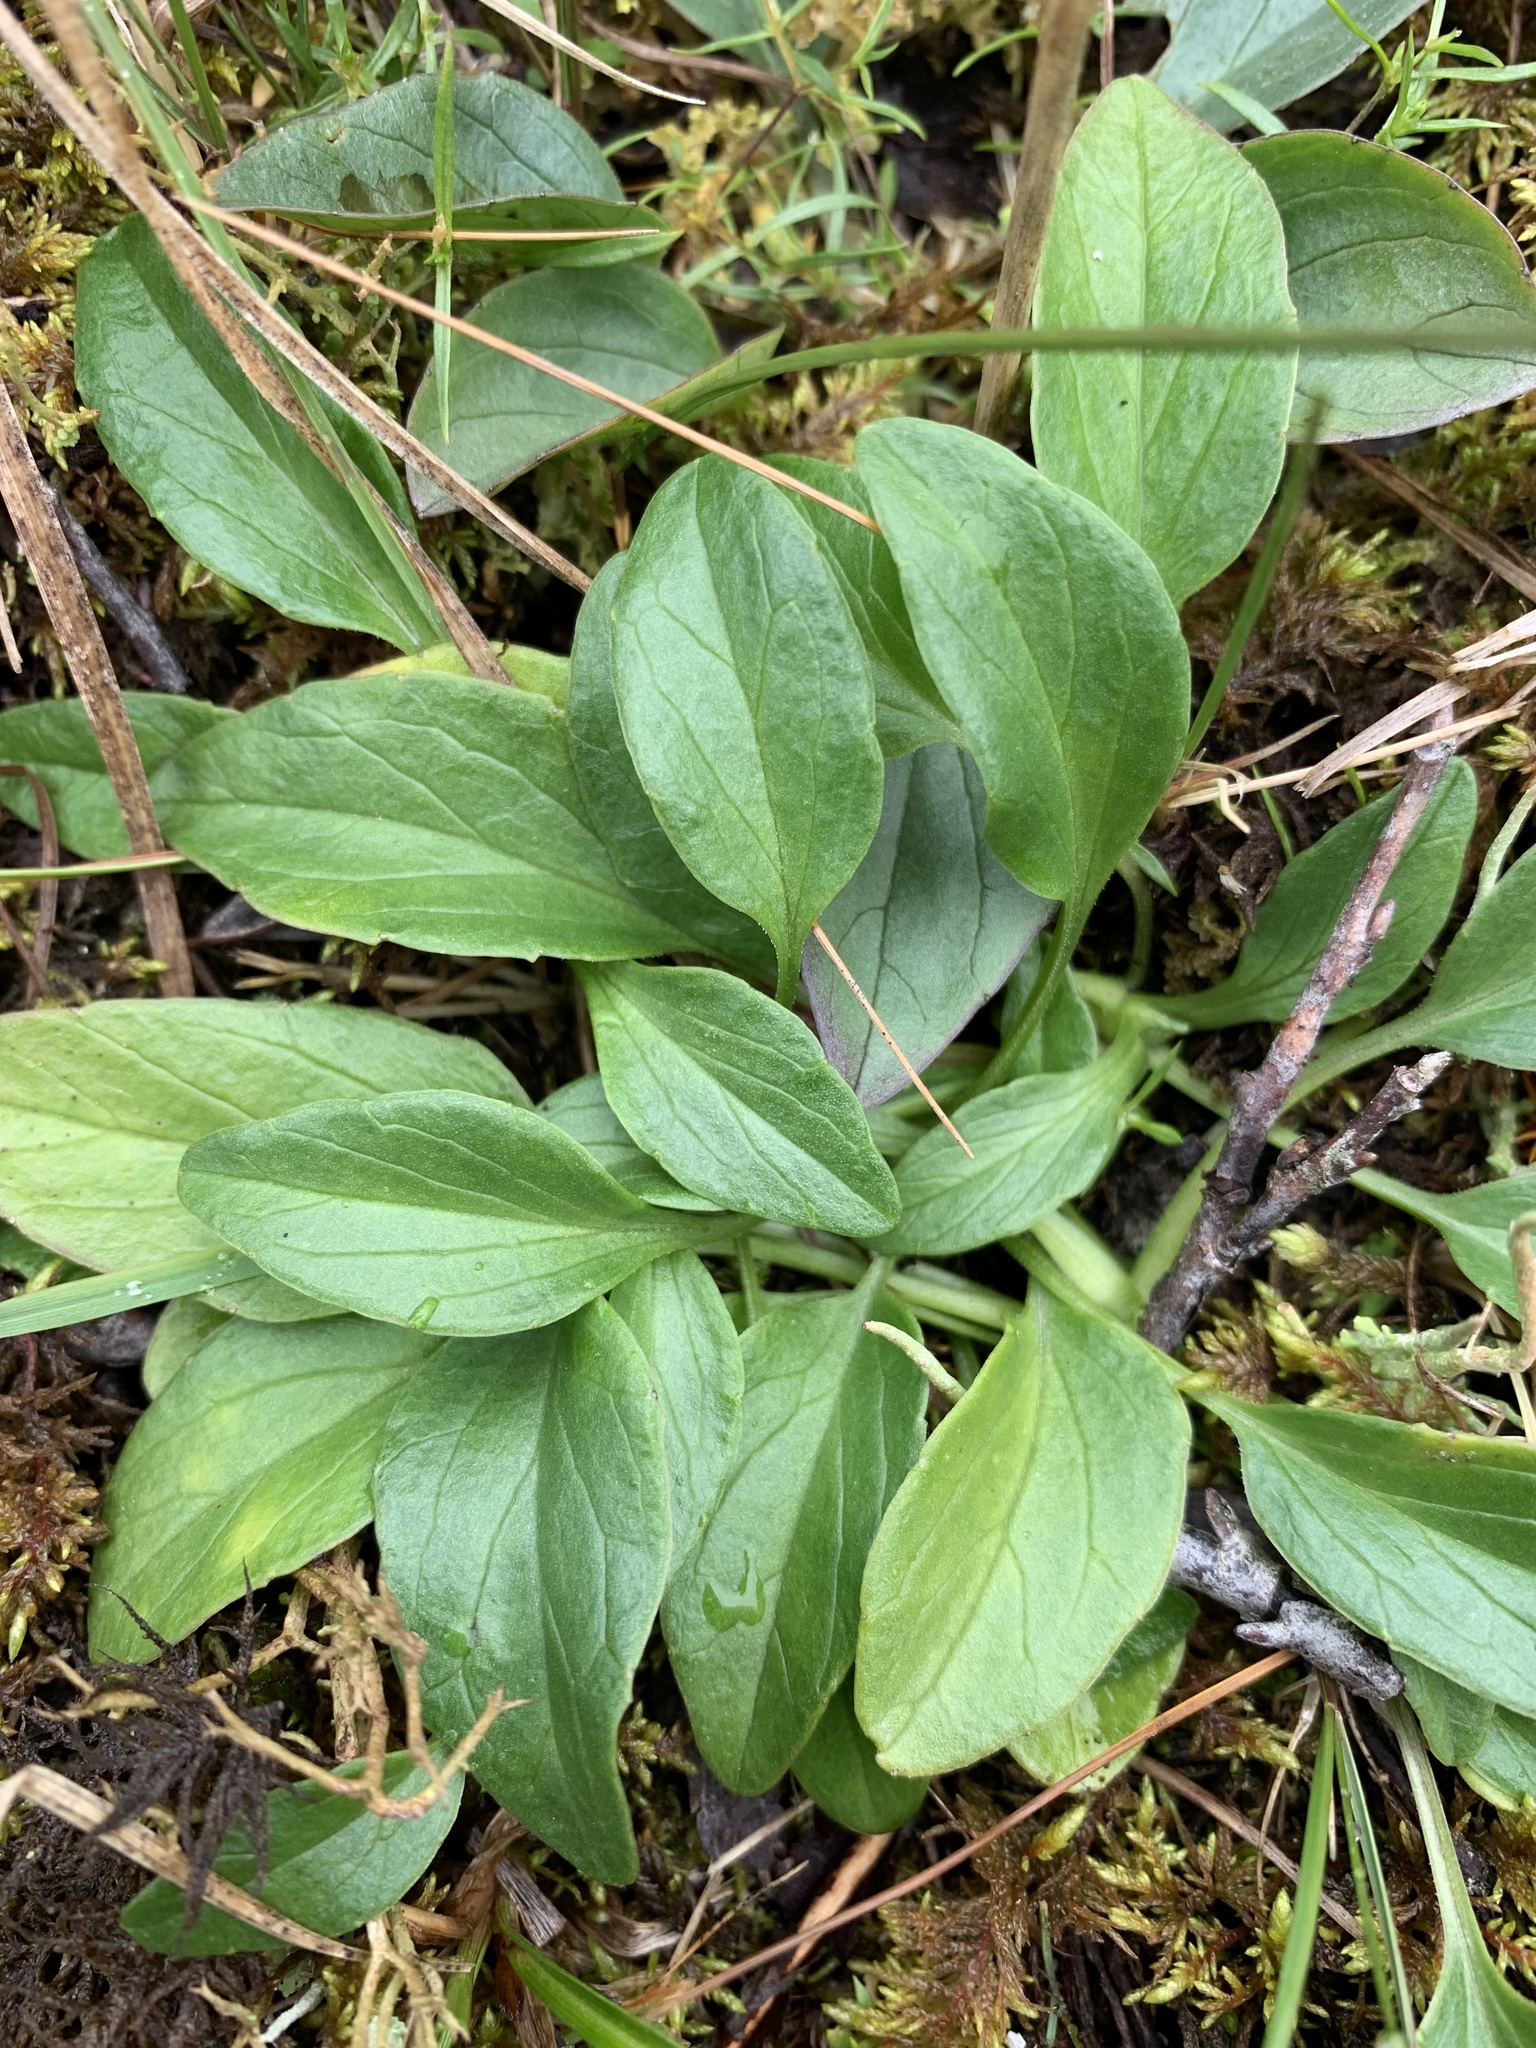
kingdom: Plantae
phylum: Tracheophyta
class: Magnoliopsida
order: Dipsacales
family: Caprifoliaceae
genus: Valeriana
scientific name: Valeriana capitata
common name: Capitate valerian
